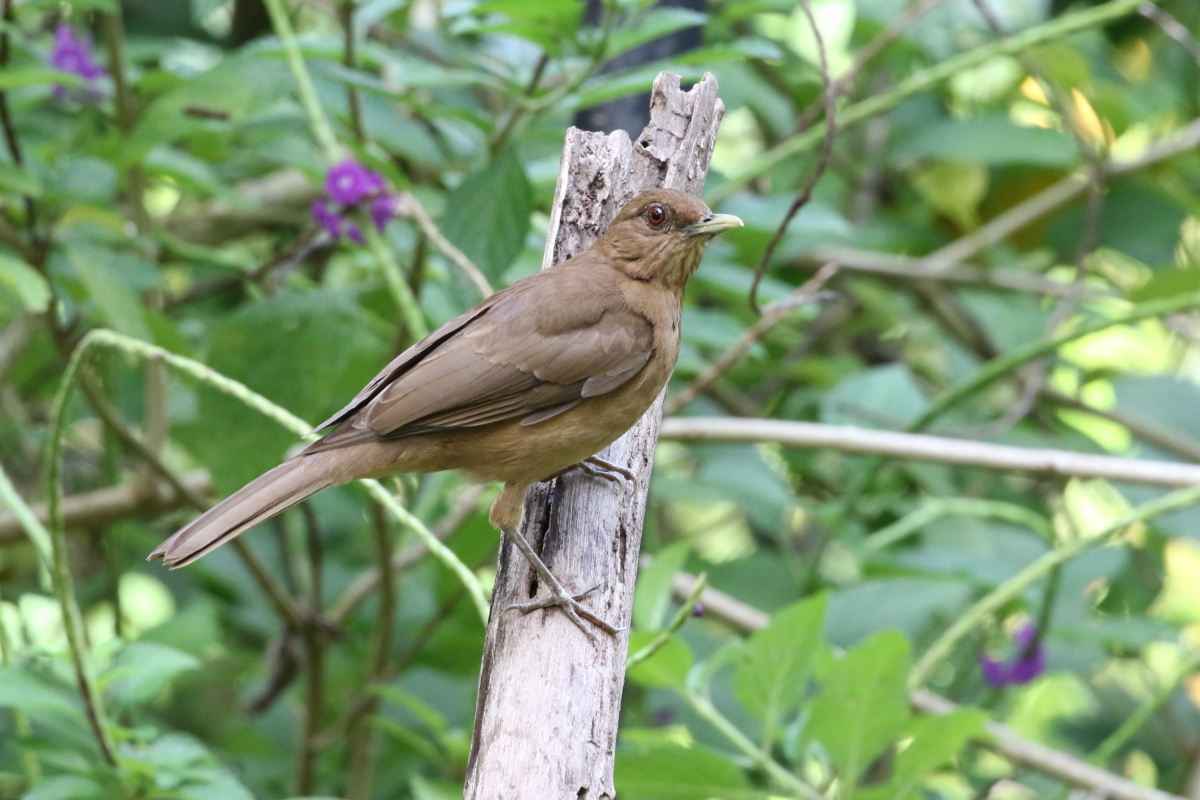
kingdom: Animalia
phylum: Chordata
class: Aves
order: Passeriformes
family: Turdidae
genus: Turdus
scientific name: Turdus grayi
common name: Clay-colored thrush
